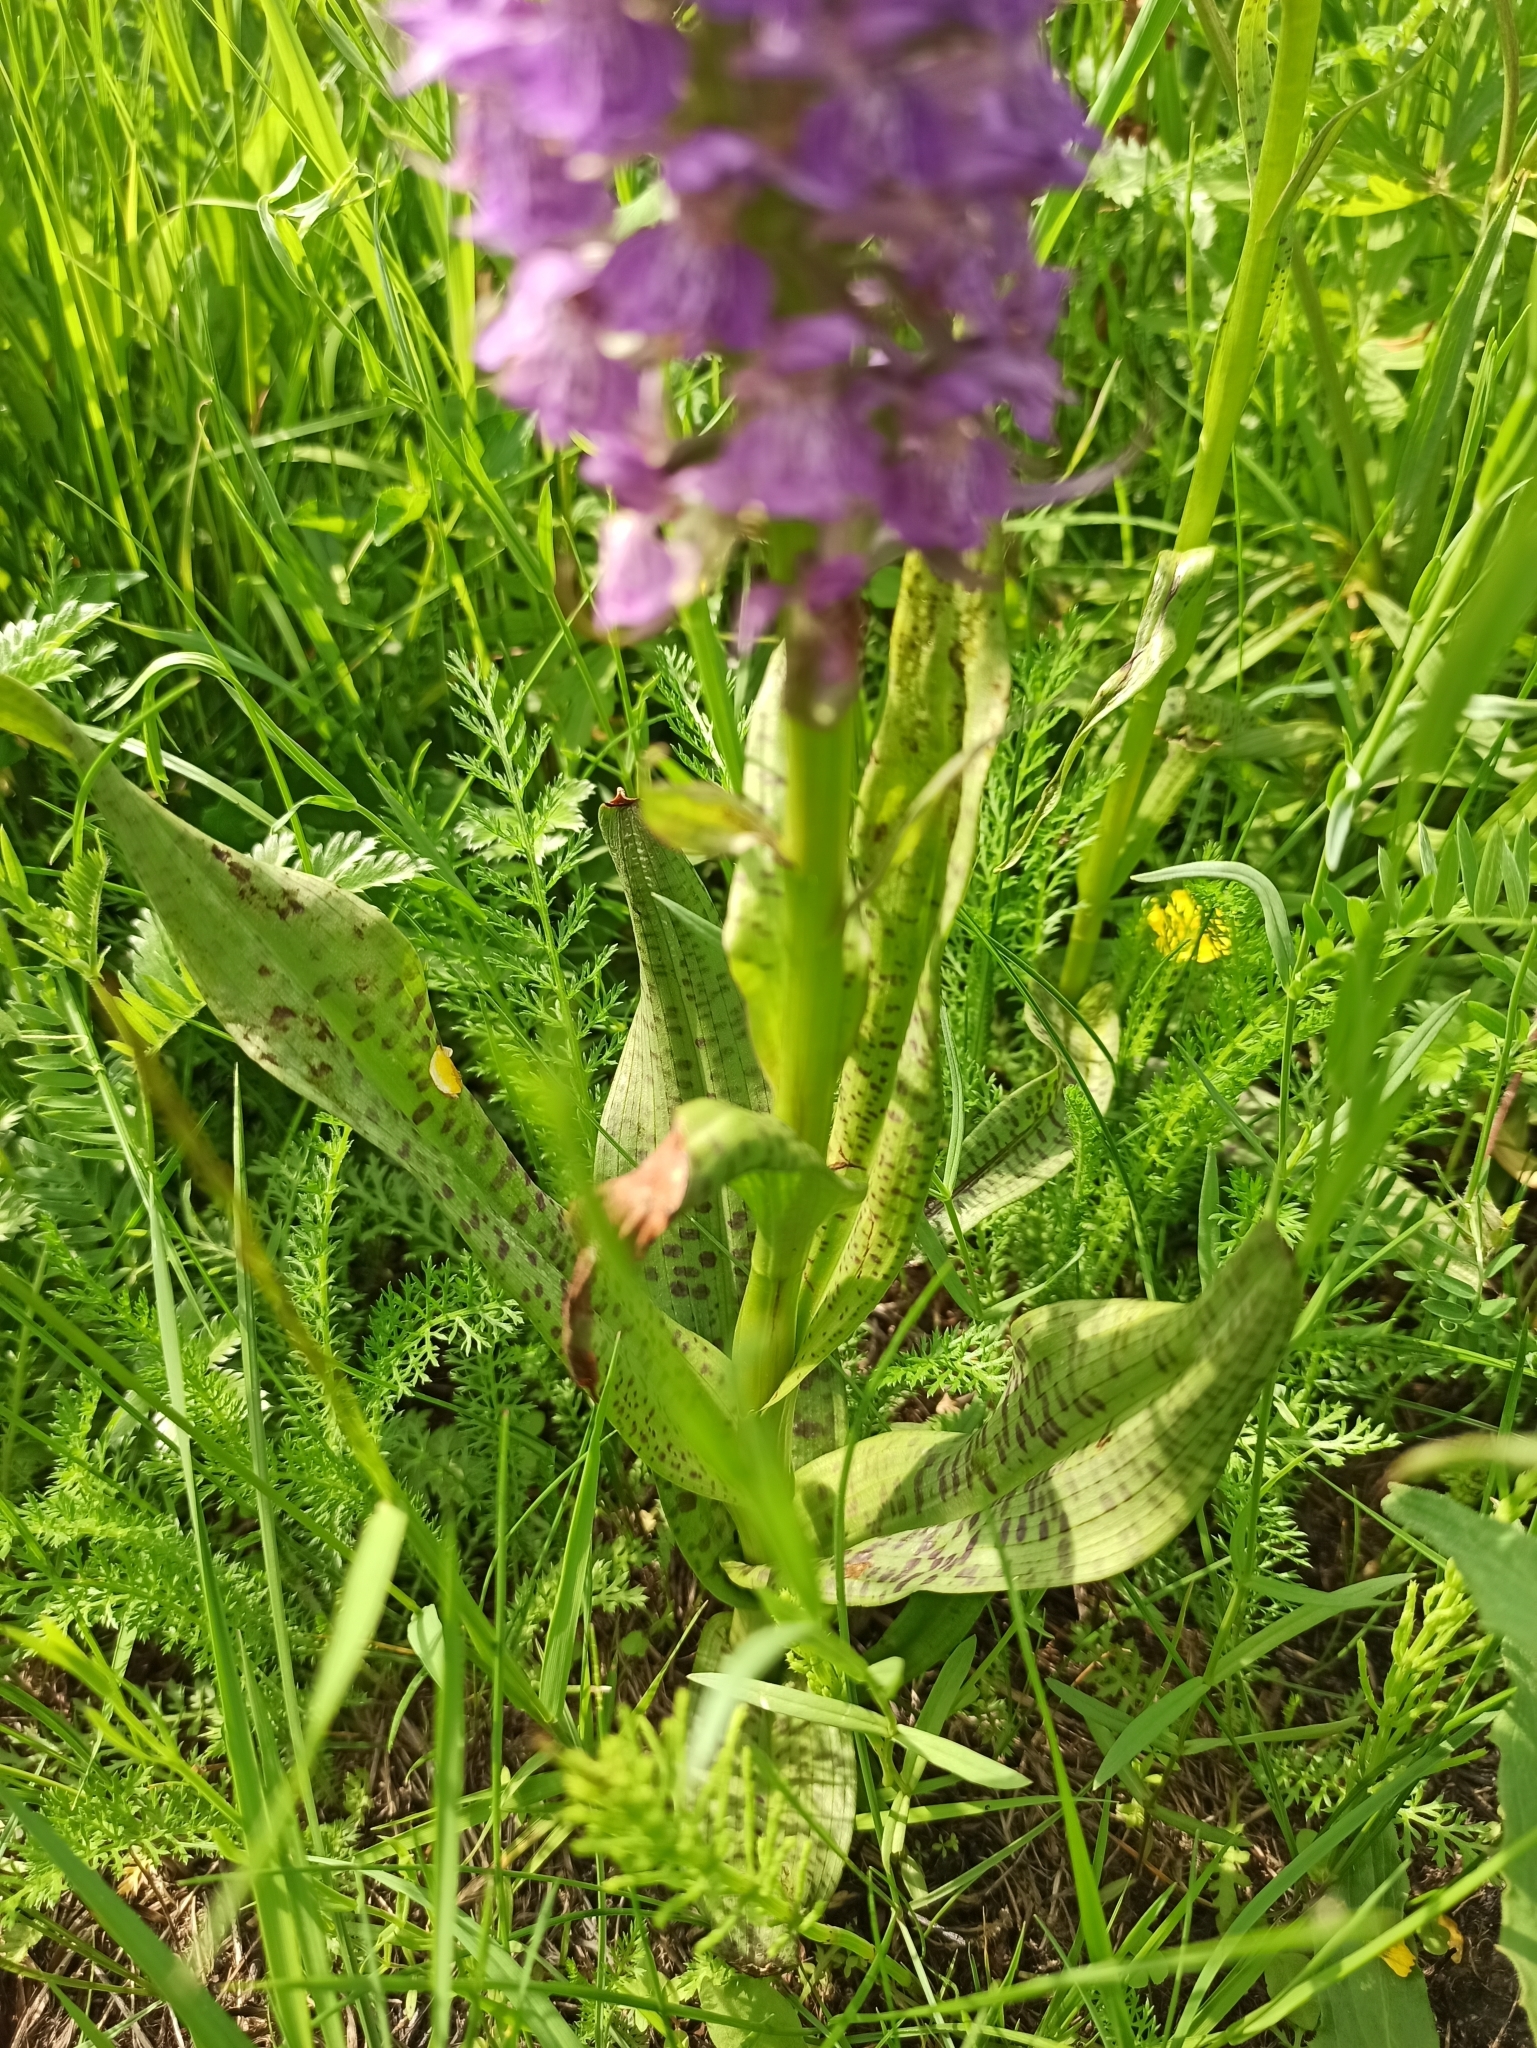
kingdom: Plantae
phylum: Tracheophyta
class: Liliopsida
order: Asparagales
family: Orchidaceae
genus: Dactylorhiza
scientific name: Dactylorhiza majalis
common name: Marsh orchid
